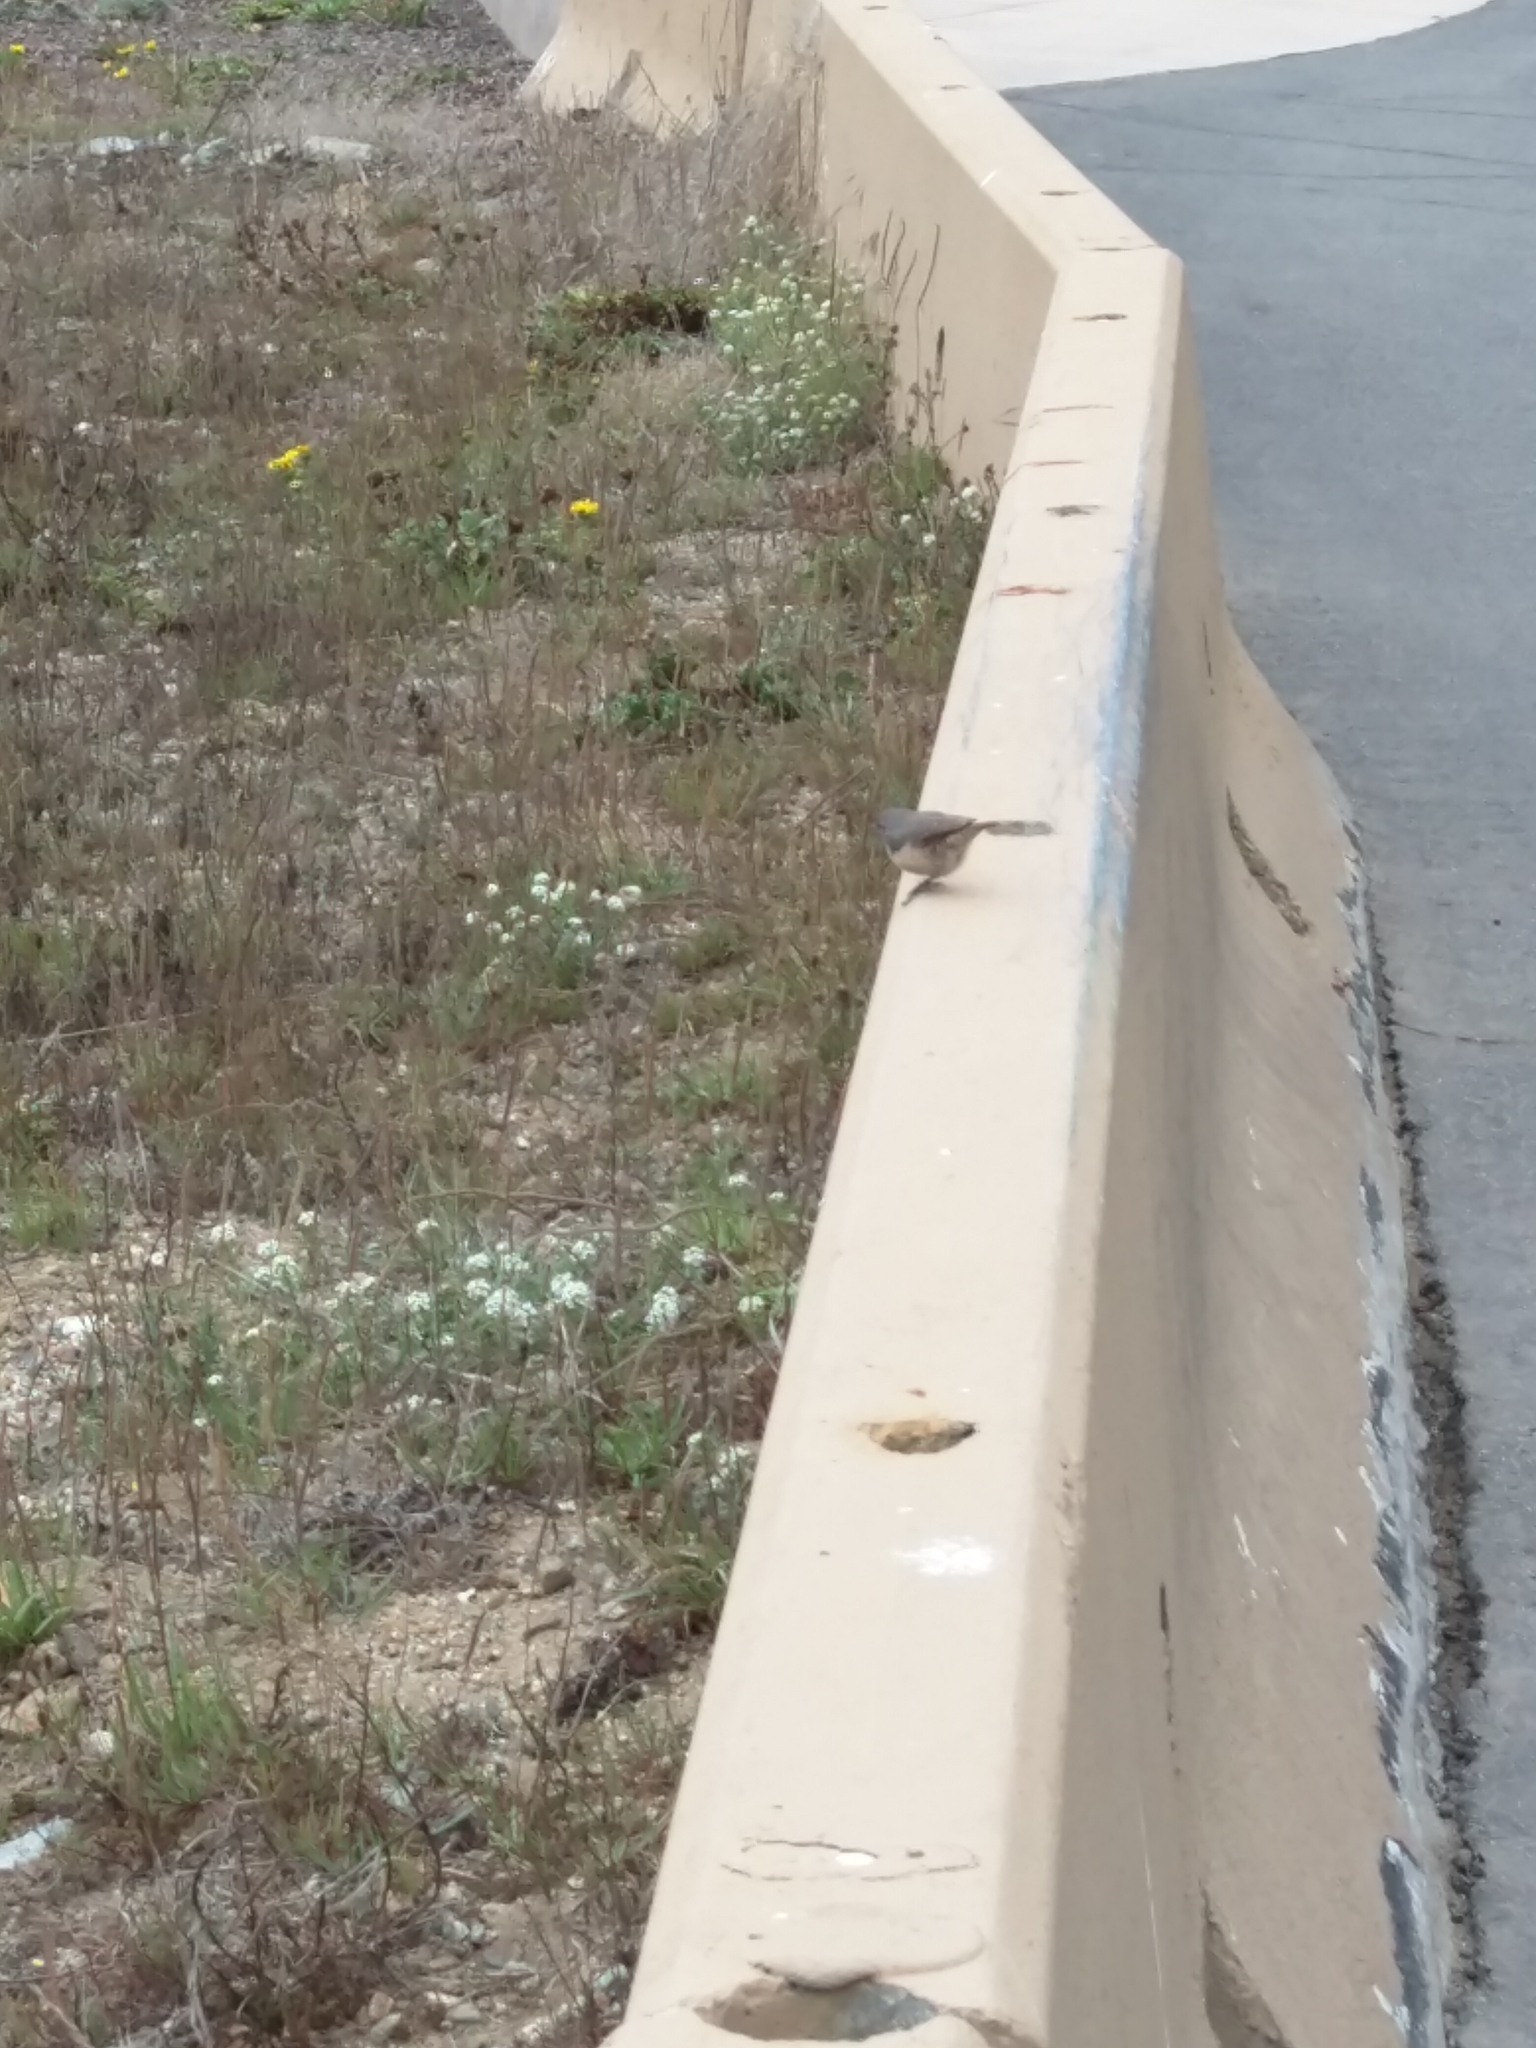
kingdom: Animalia
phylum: Chordata
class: Aves
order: Passeriformes
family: Troglodytidae
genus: Salpinctes
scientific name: Salpinctes obsoletus
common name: Rock wren
